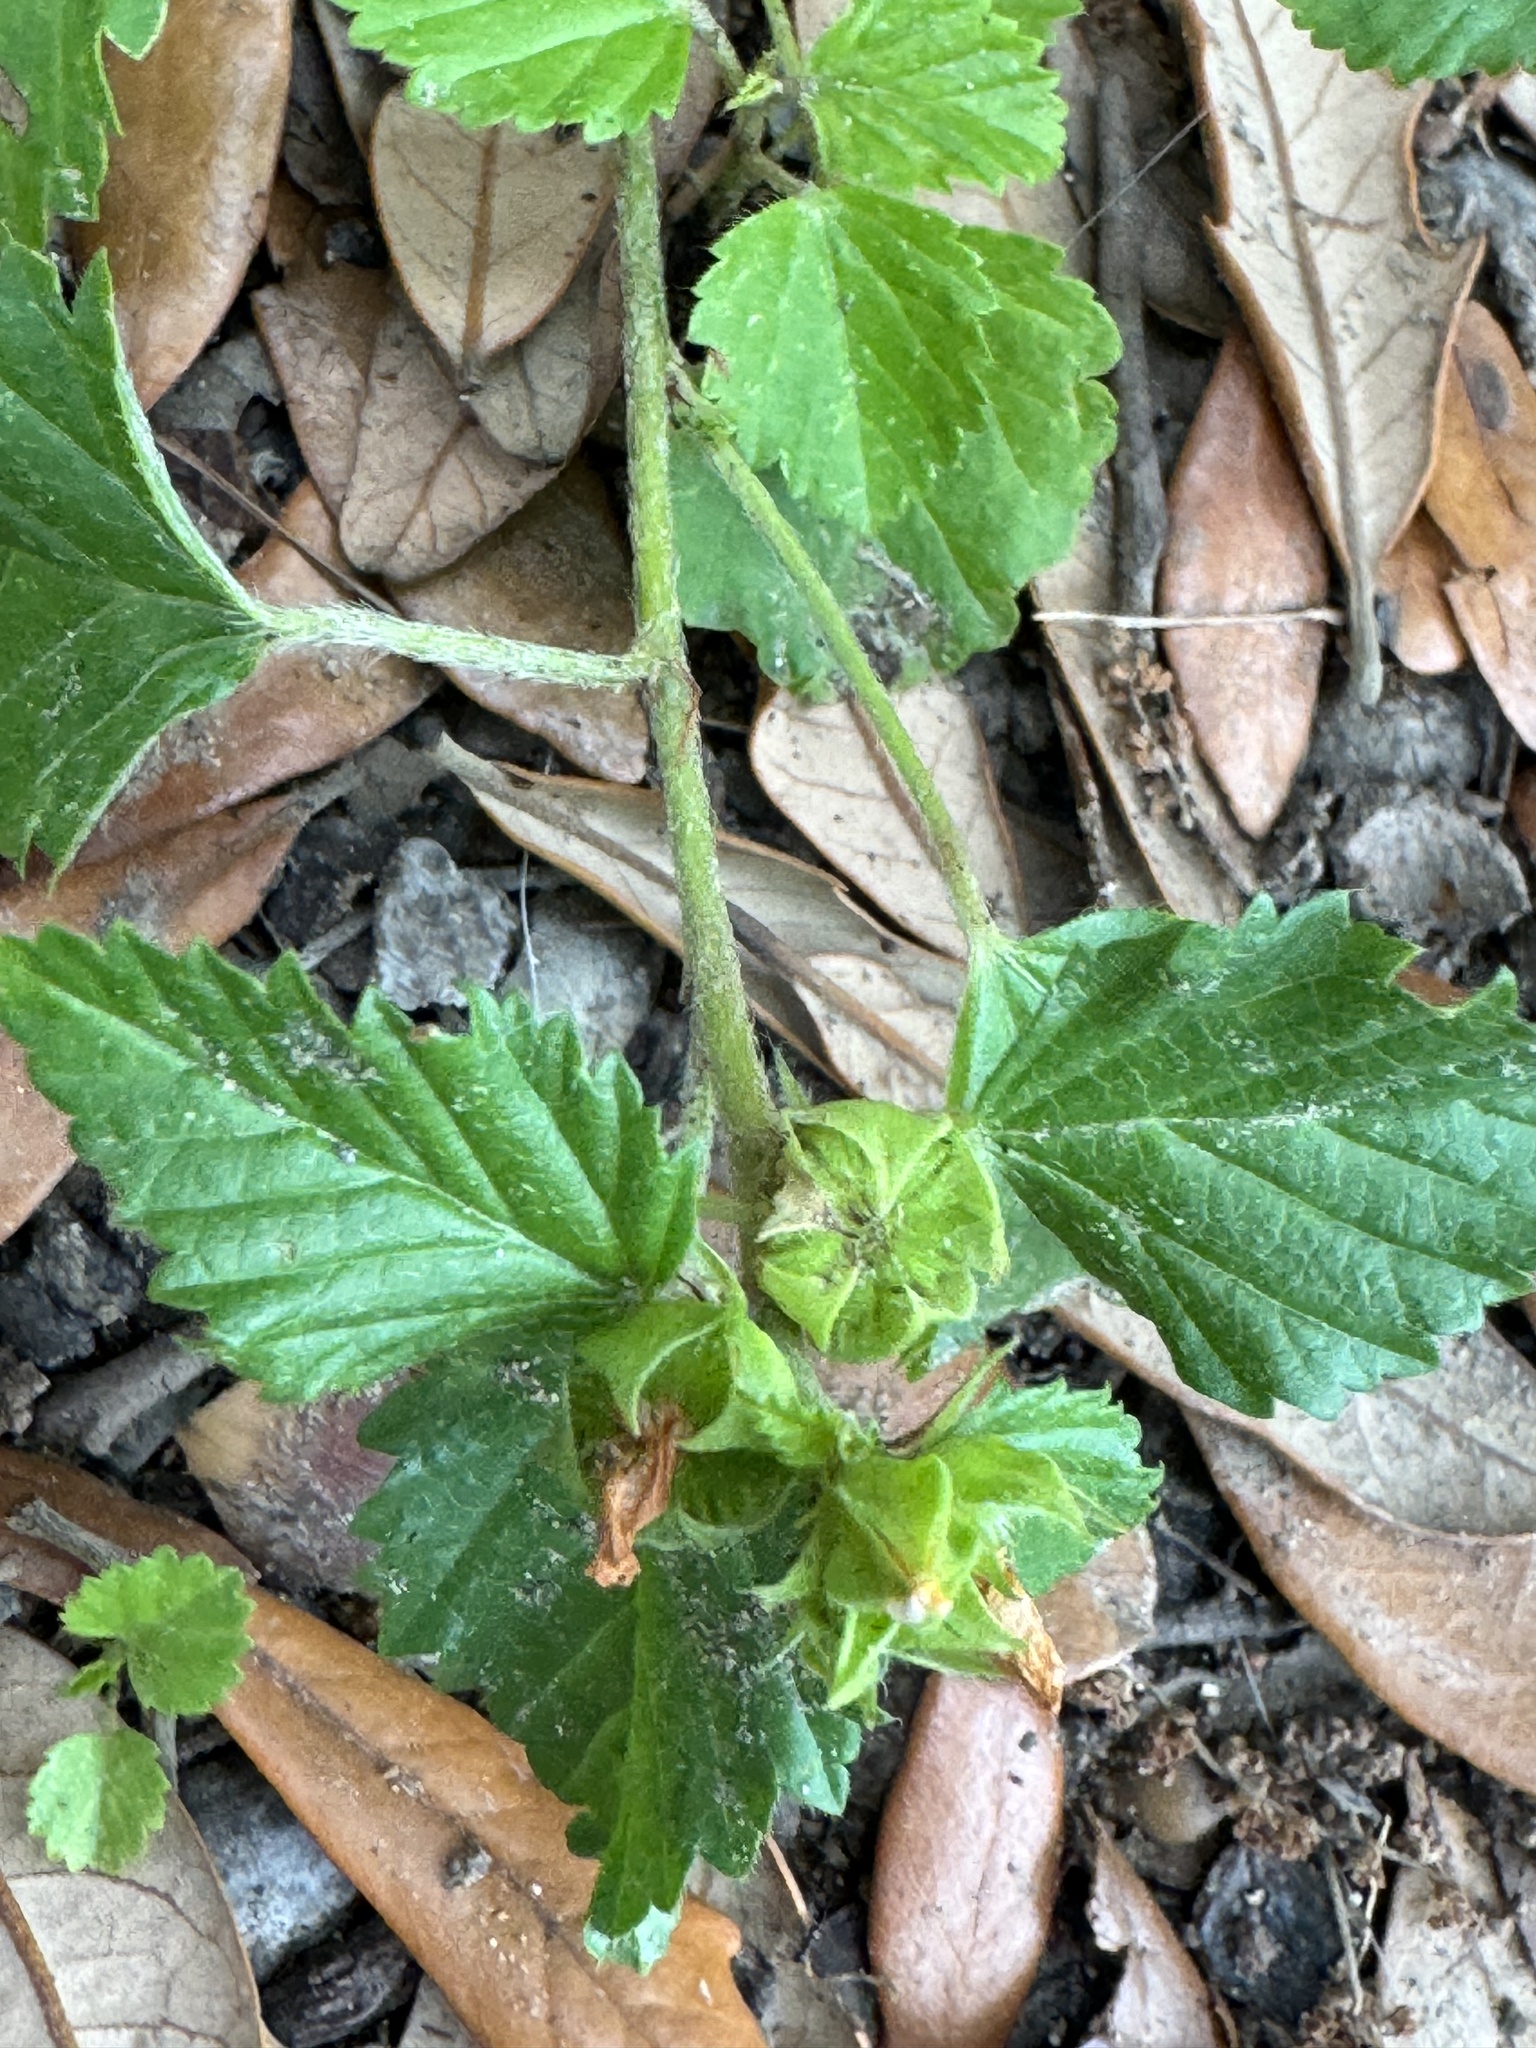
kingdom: Plantae
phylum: Tracheophyta
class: Magnoliopsida
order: Malvales
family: Malvaceae
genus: Malvastrum
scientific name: Malvastrum coromandelianum
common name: Threelobe false mallow
